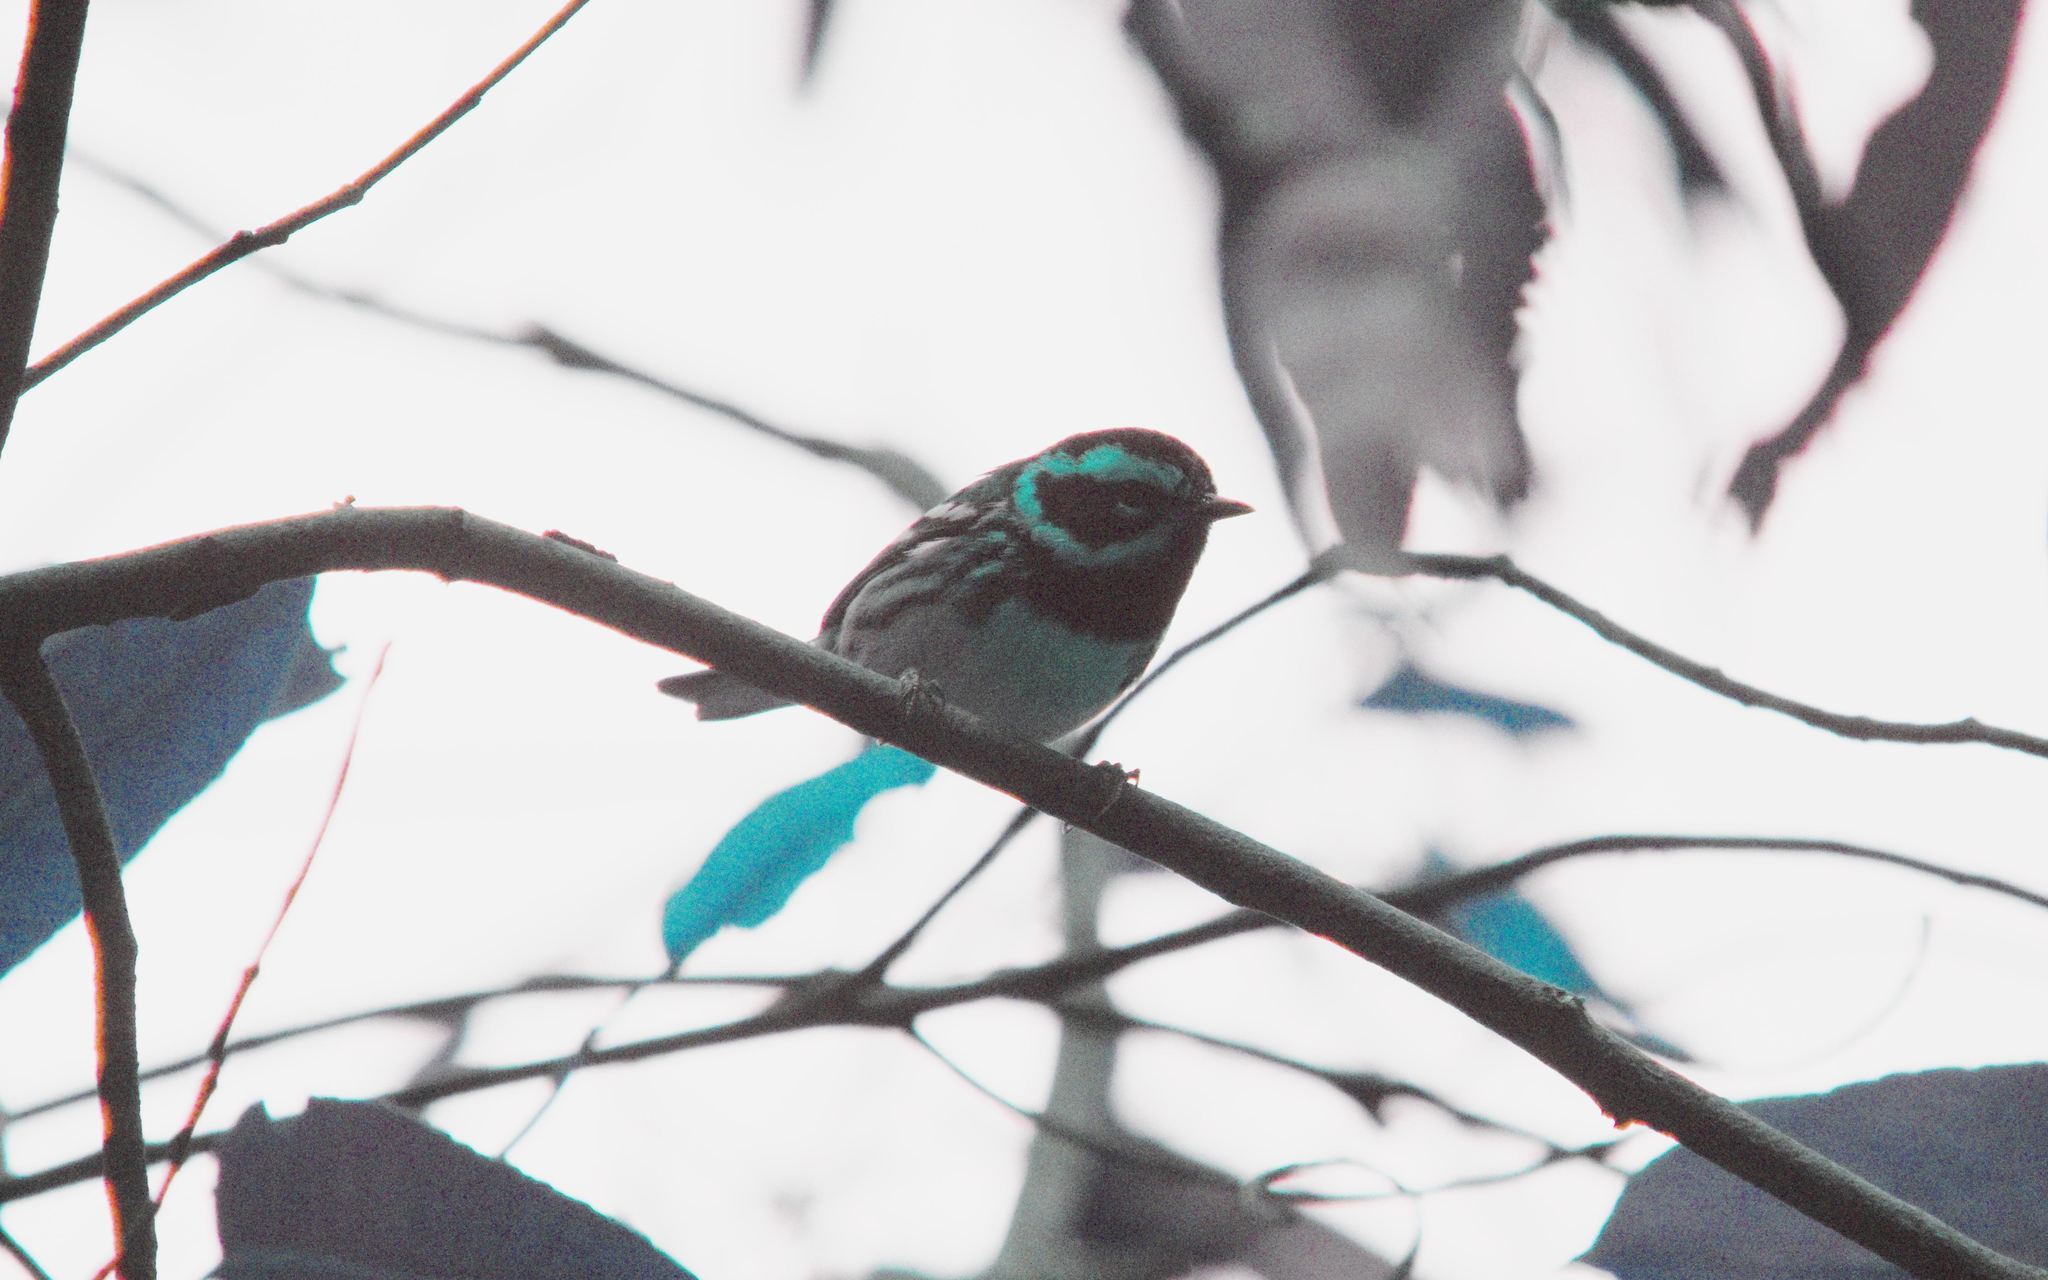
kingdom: Animalia
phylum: Chordata
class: Aves
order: Passeriformes
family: Parulidae
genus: Setophaga
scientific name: Setophaga townsendi
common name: Townsend's warbler
